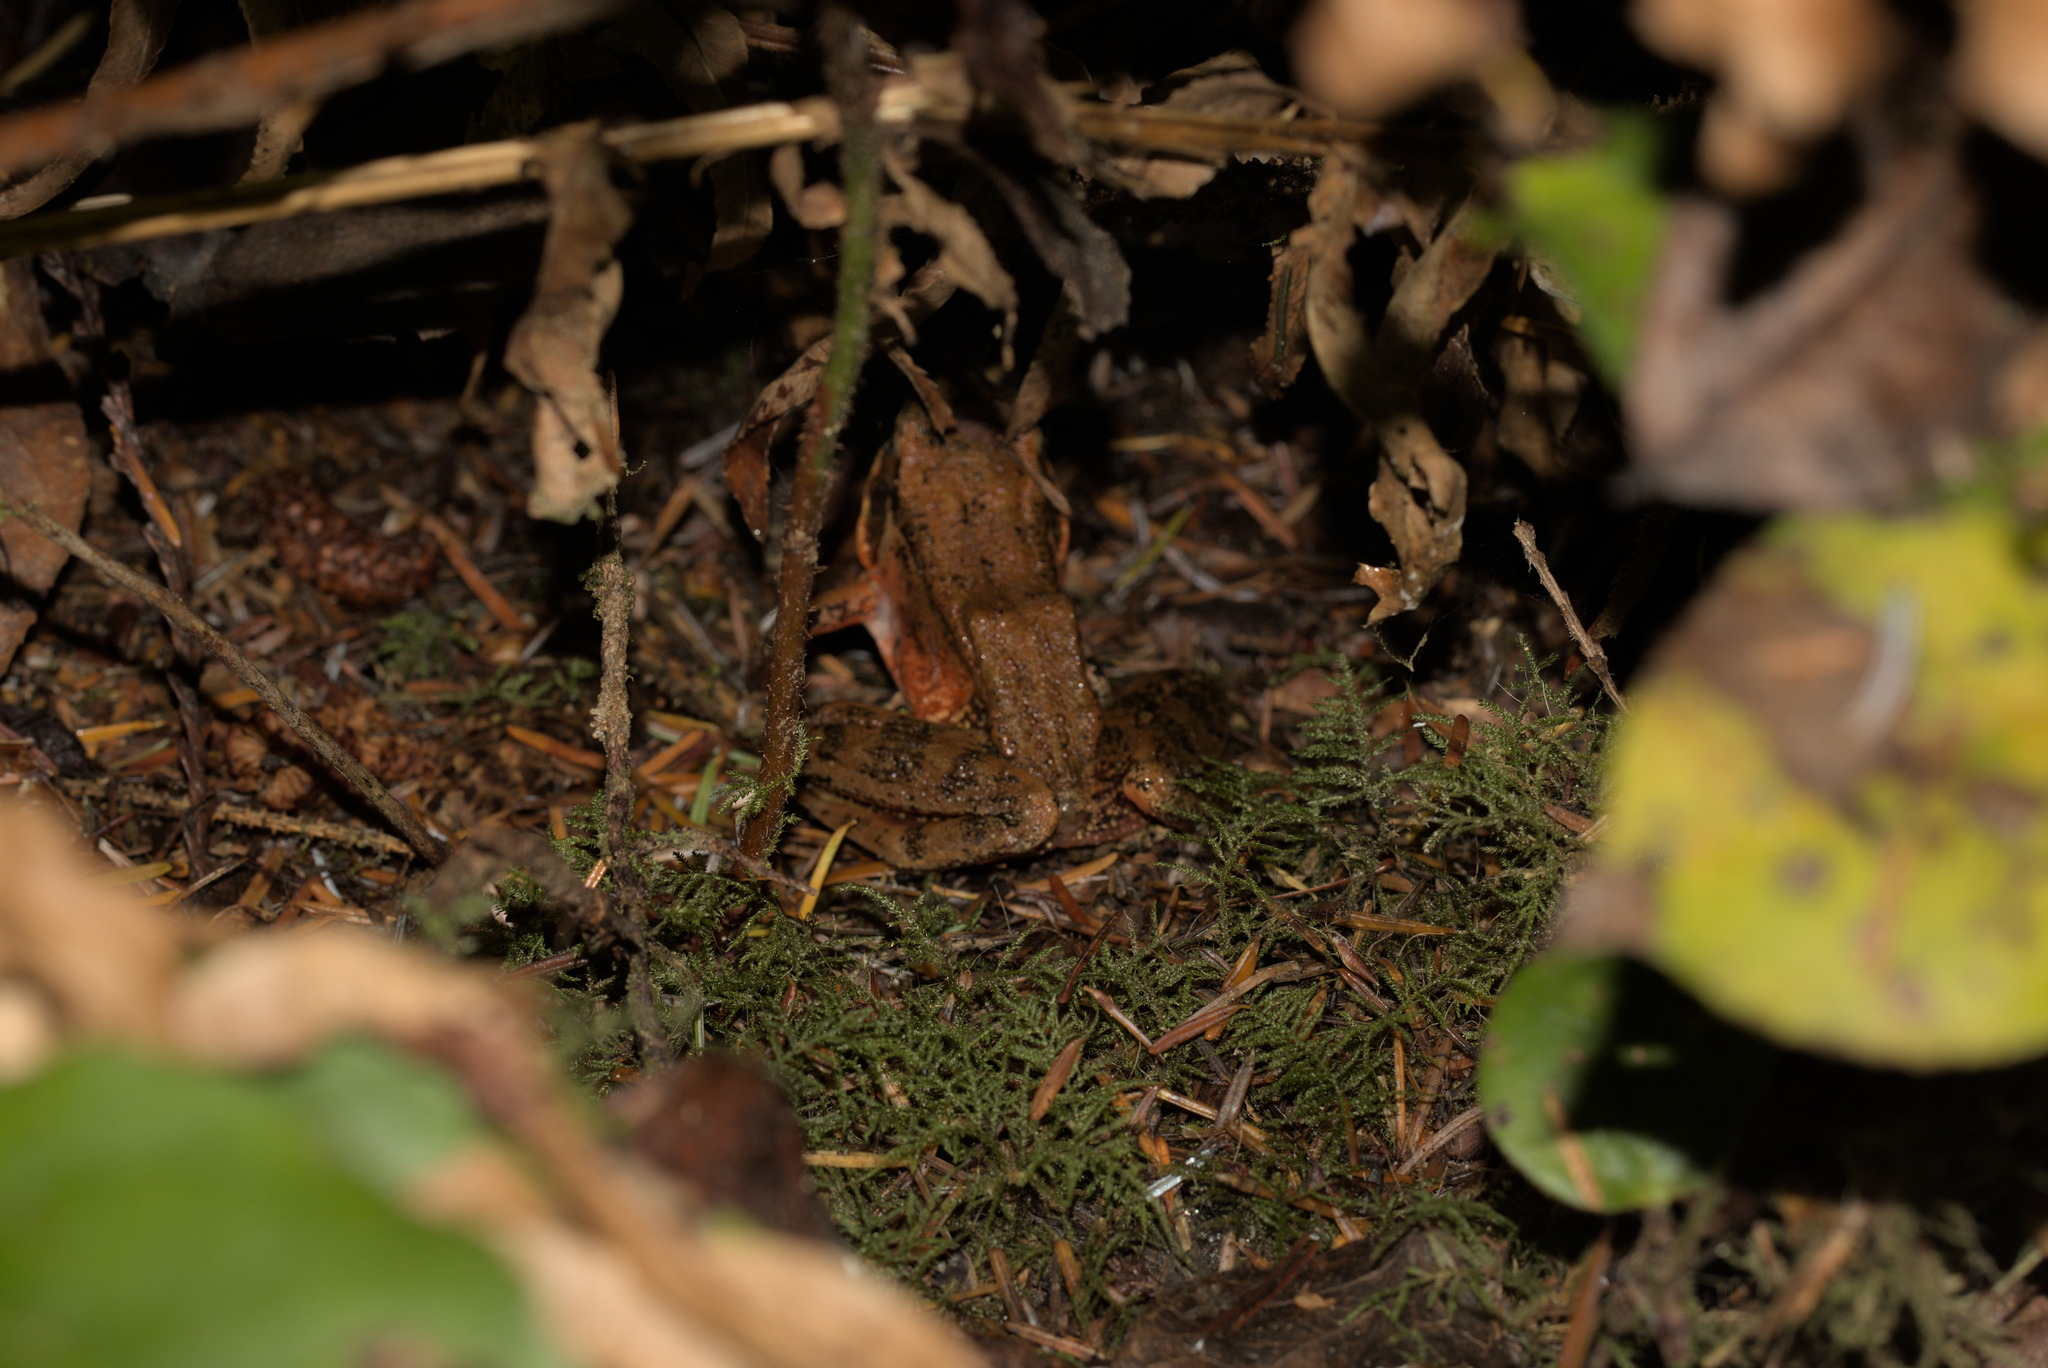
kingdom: Animalia
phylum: Chordata
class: Amphibia
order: Anura
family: Ranidae
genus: Rana
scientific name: Rana aurora
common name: Red-legged frog
